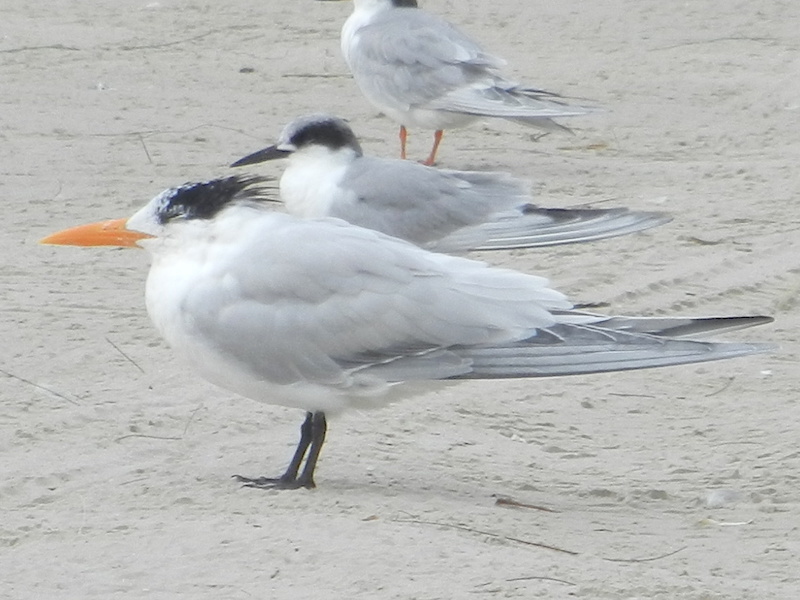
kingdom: Animalia
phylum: Chordata
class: Aves
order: Charadriiformes
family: Laridae
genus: Thalasseus
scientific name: Thalasseus maximus
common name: Royal tern
